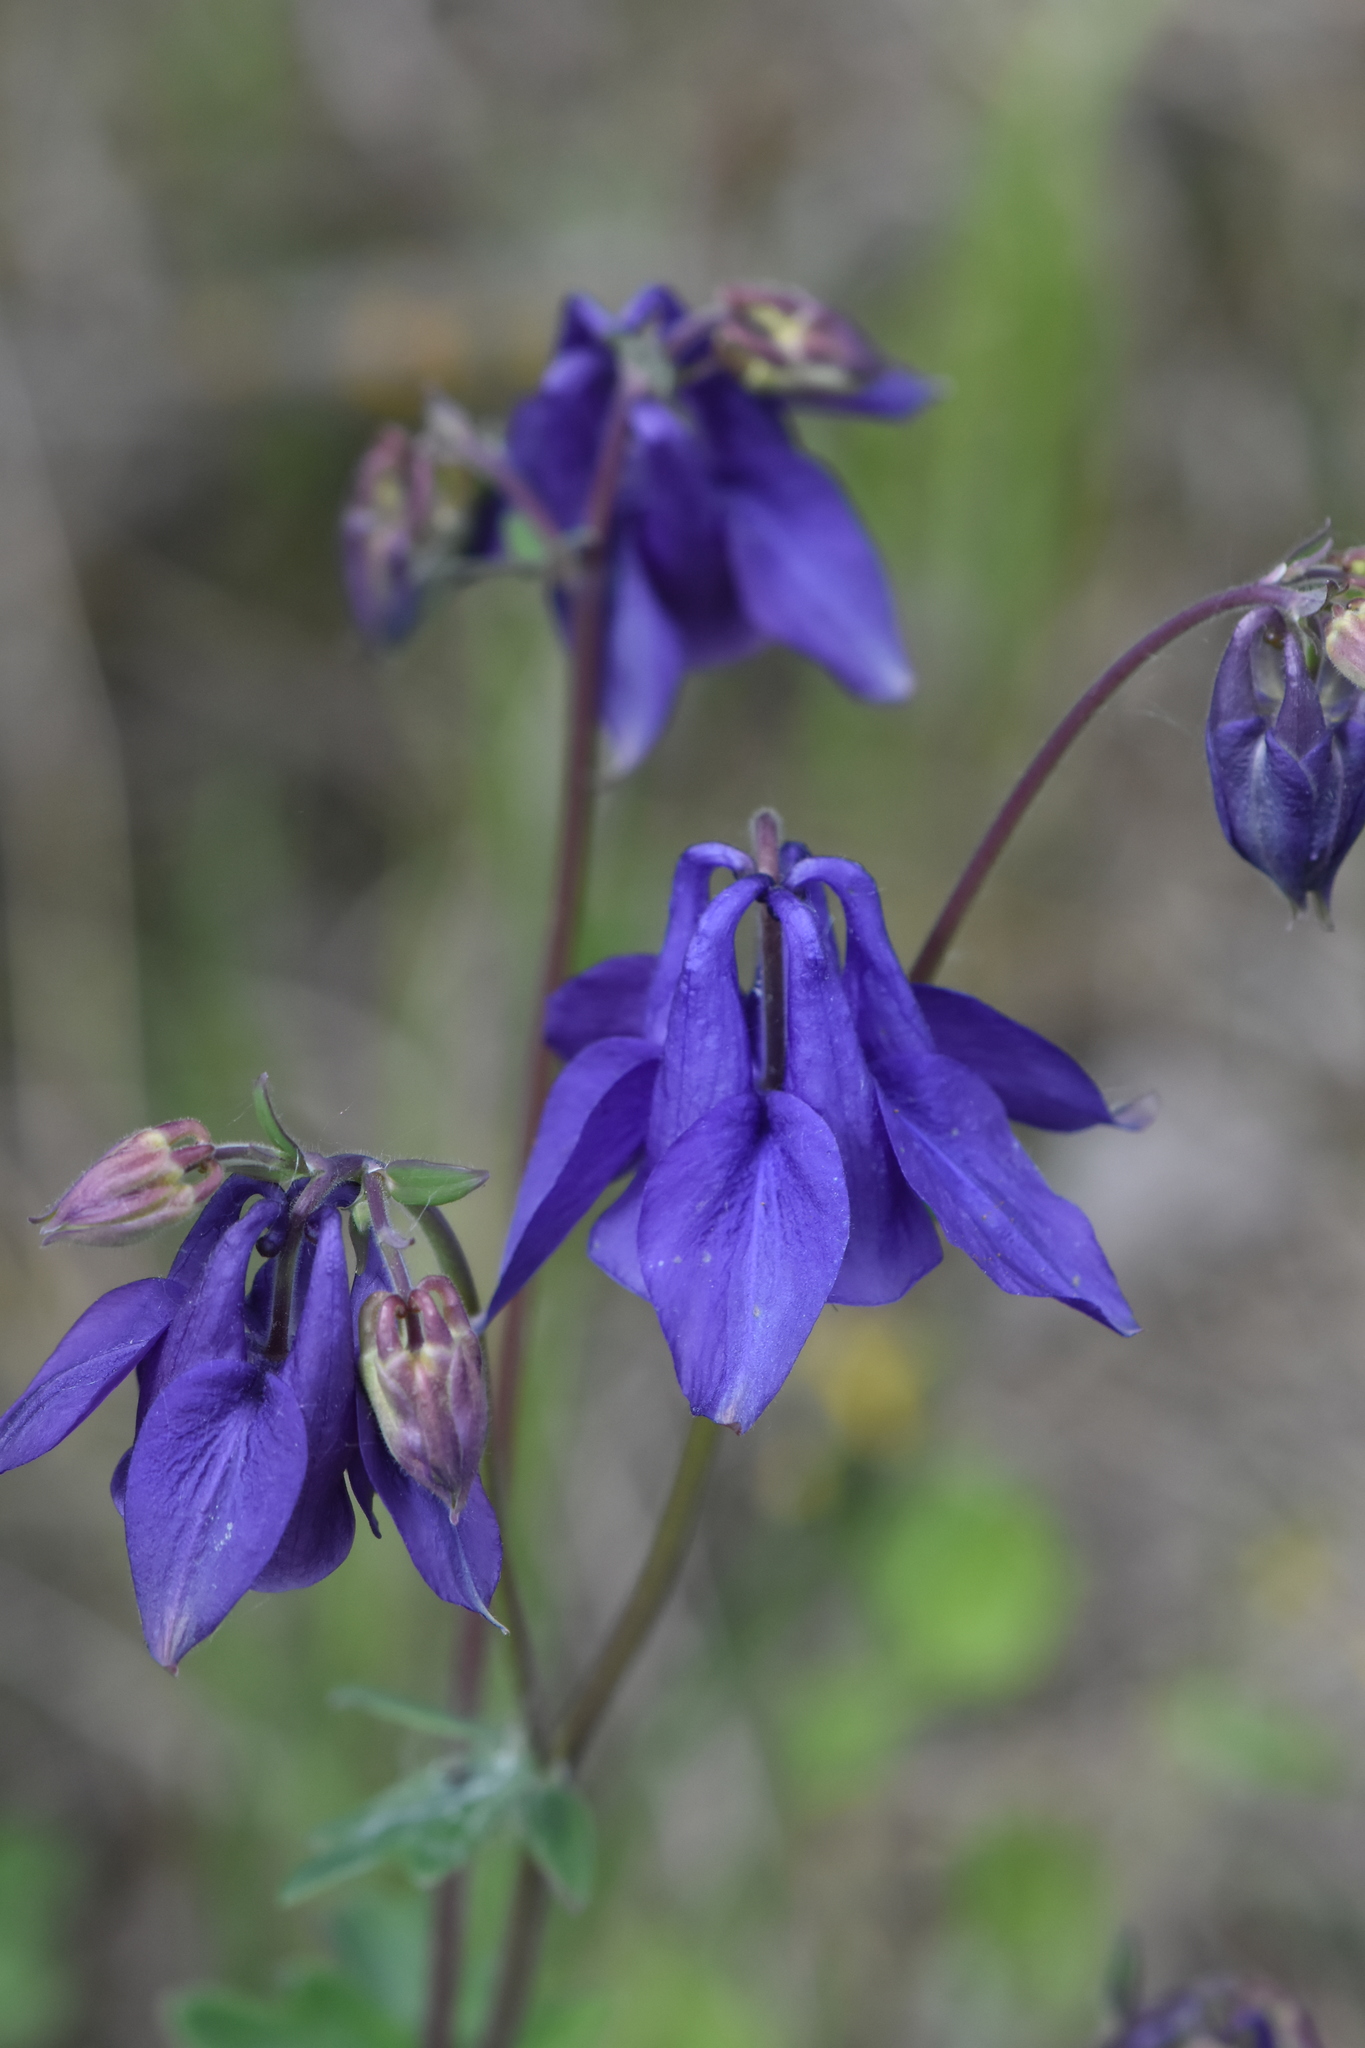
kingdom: Plantae
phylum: Tracheophyta
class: Magnoliopsida
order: Ranunculales
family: Ranunculaceae
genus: Aquilegia
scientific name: Aquilegia vulgaris
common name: Columbine
